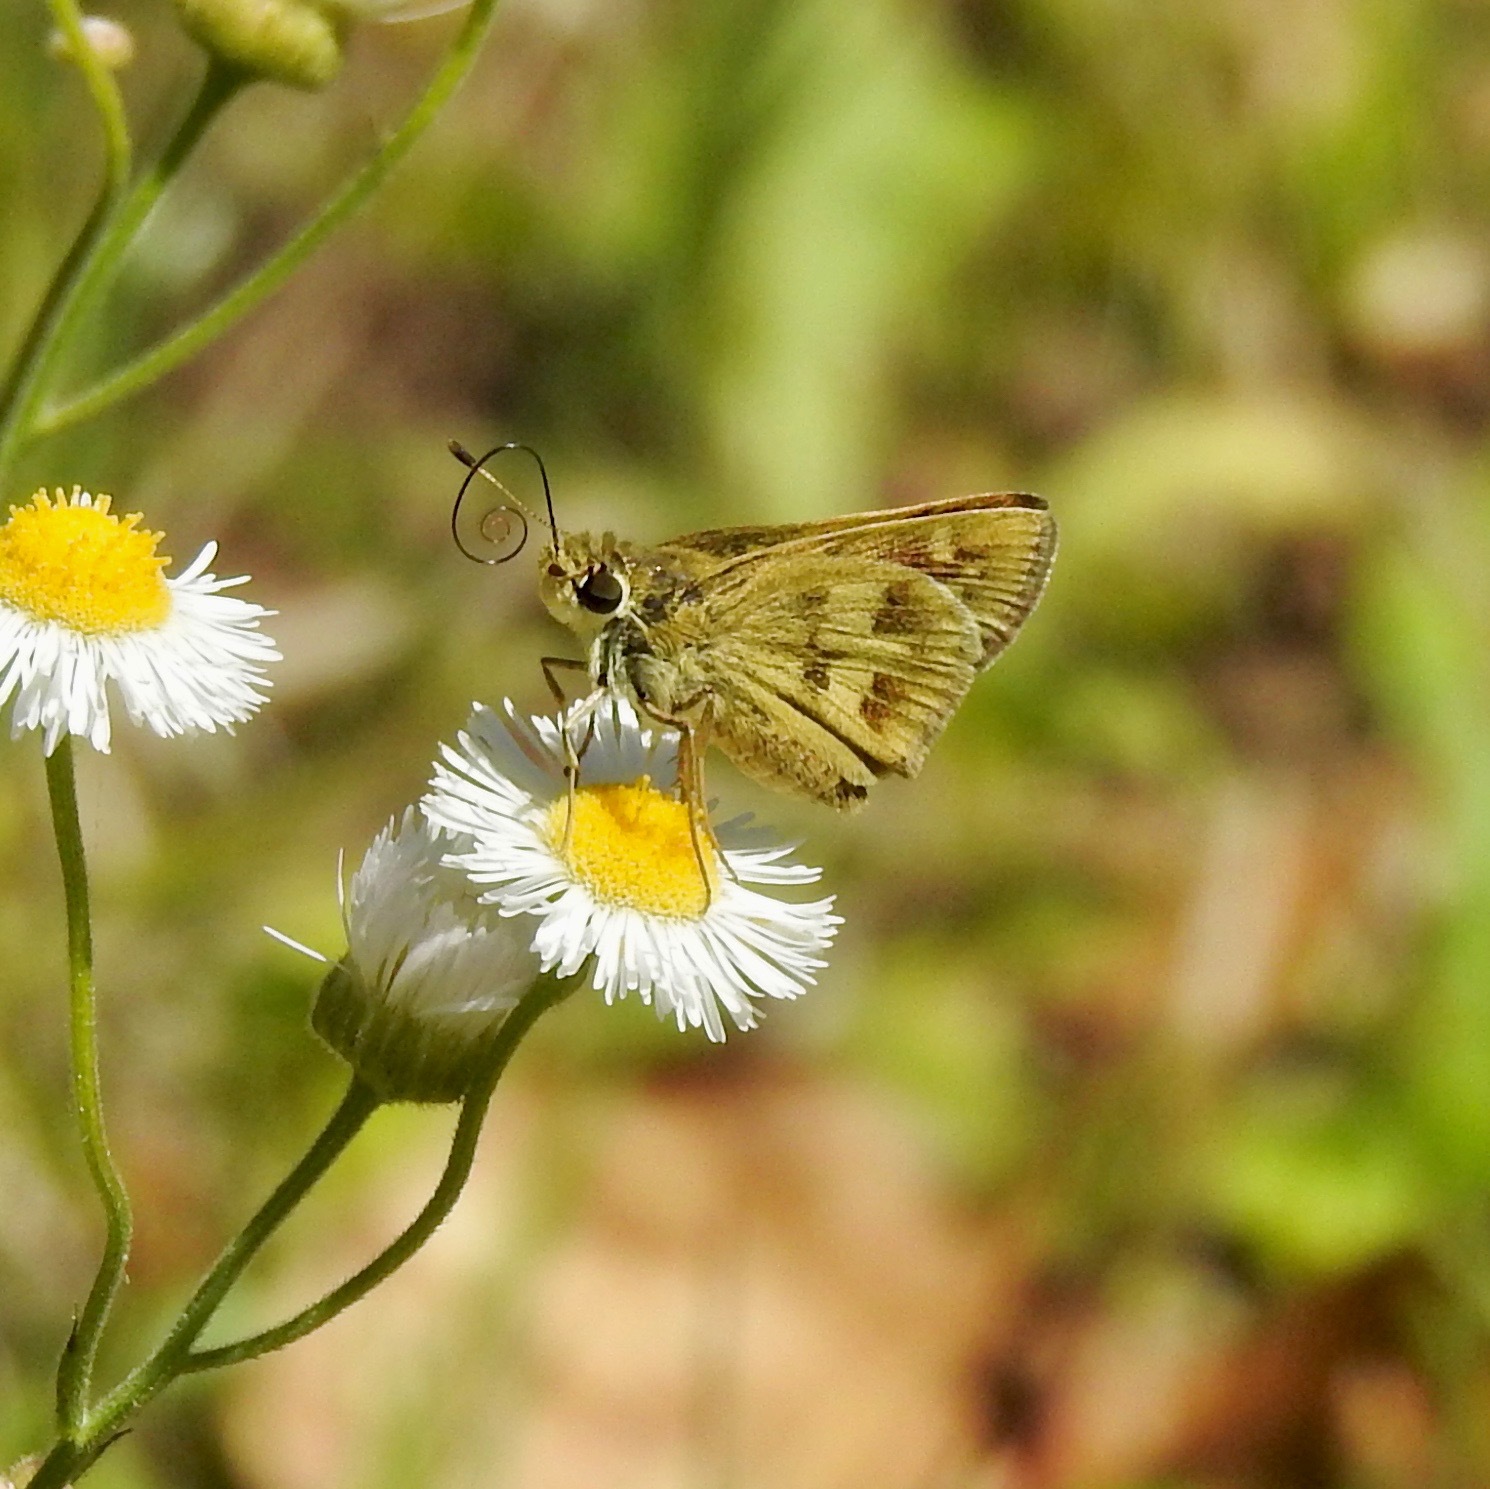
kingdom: Animalia
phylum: Arthropoda
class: Insecta
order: Lepidoptera
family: Hesperiidae
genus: Polites
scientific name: Polites vibex
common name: Whirlabout
